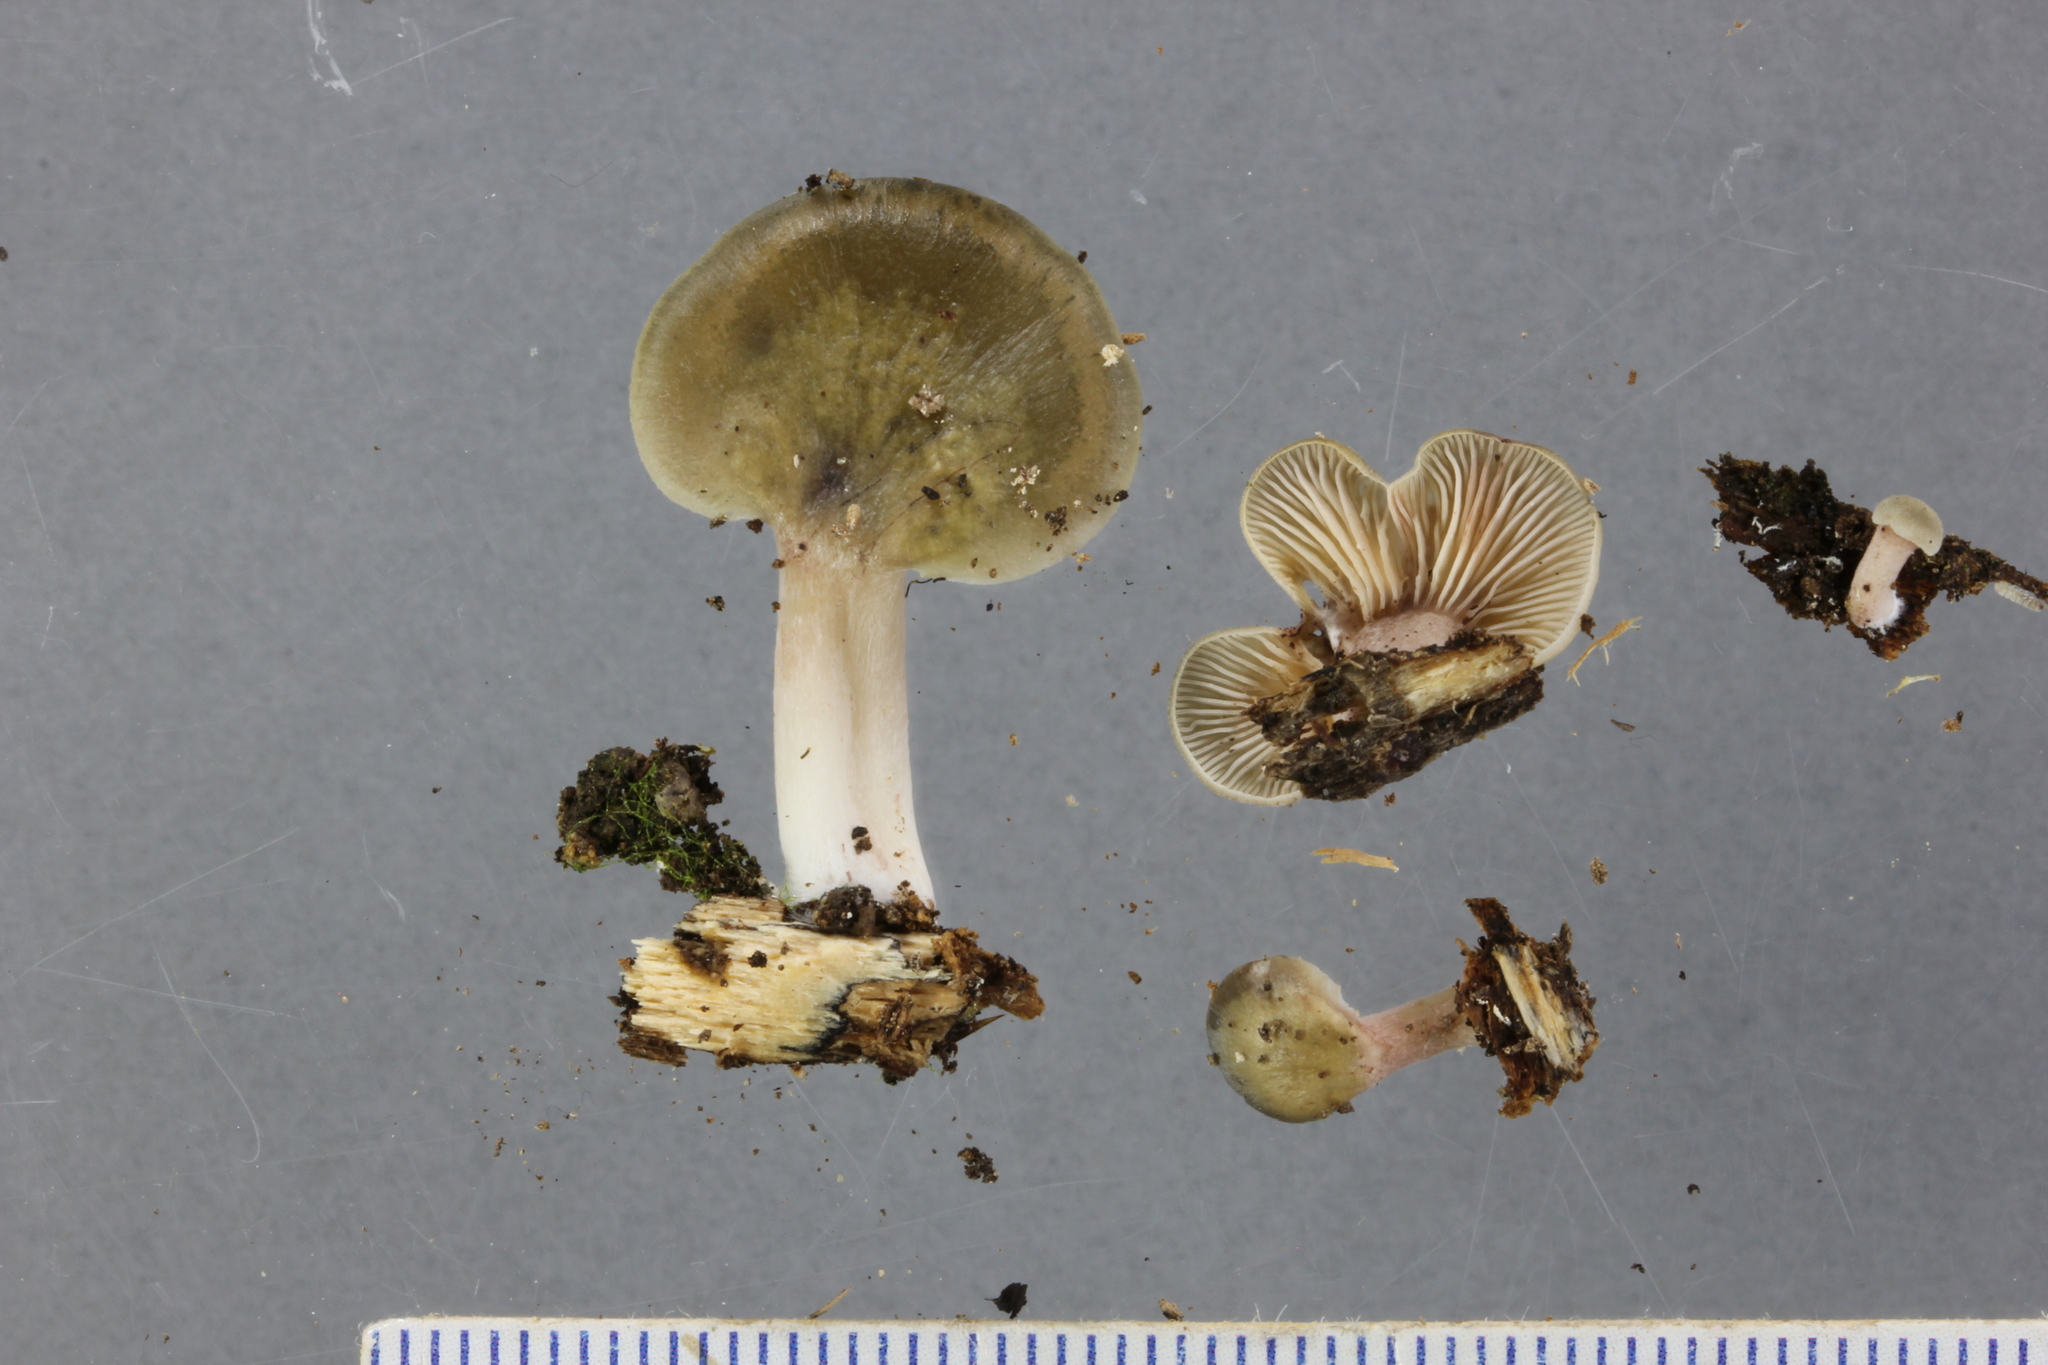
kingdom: Fungi
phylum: Basidiomycota
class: Agaricomycetes
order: Agaricales
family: Mycenaceae
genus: Panellus
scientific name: Panellus longinquus
